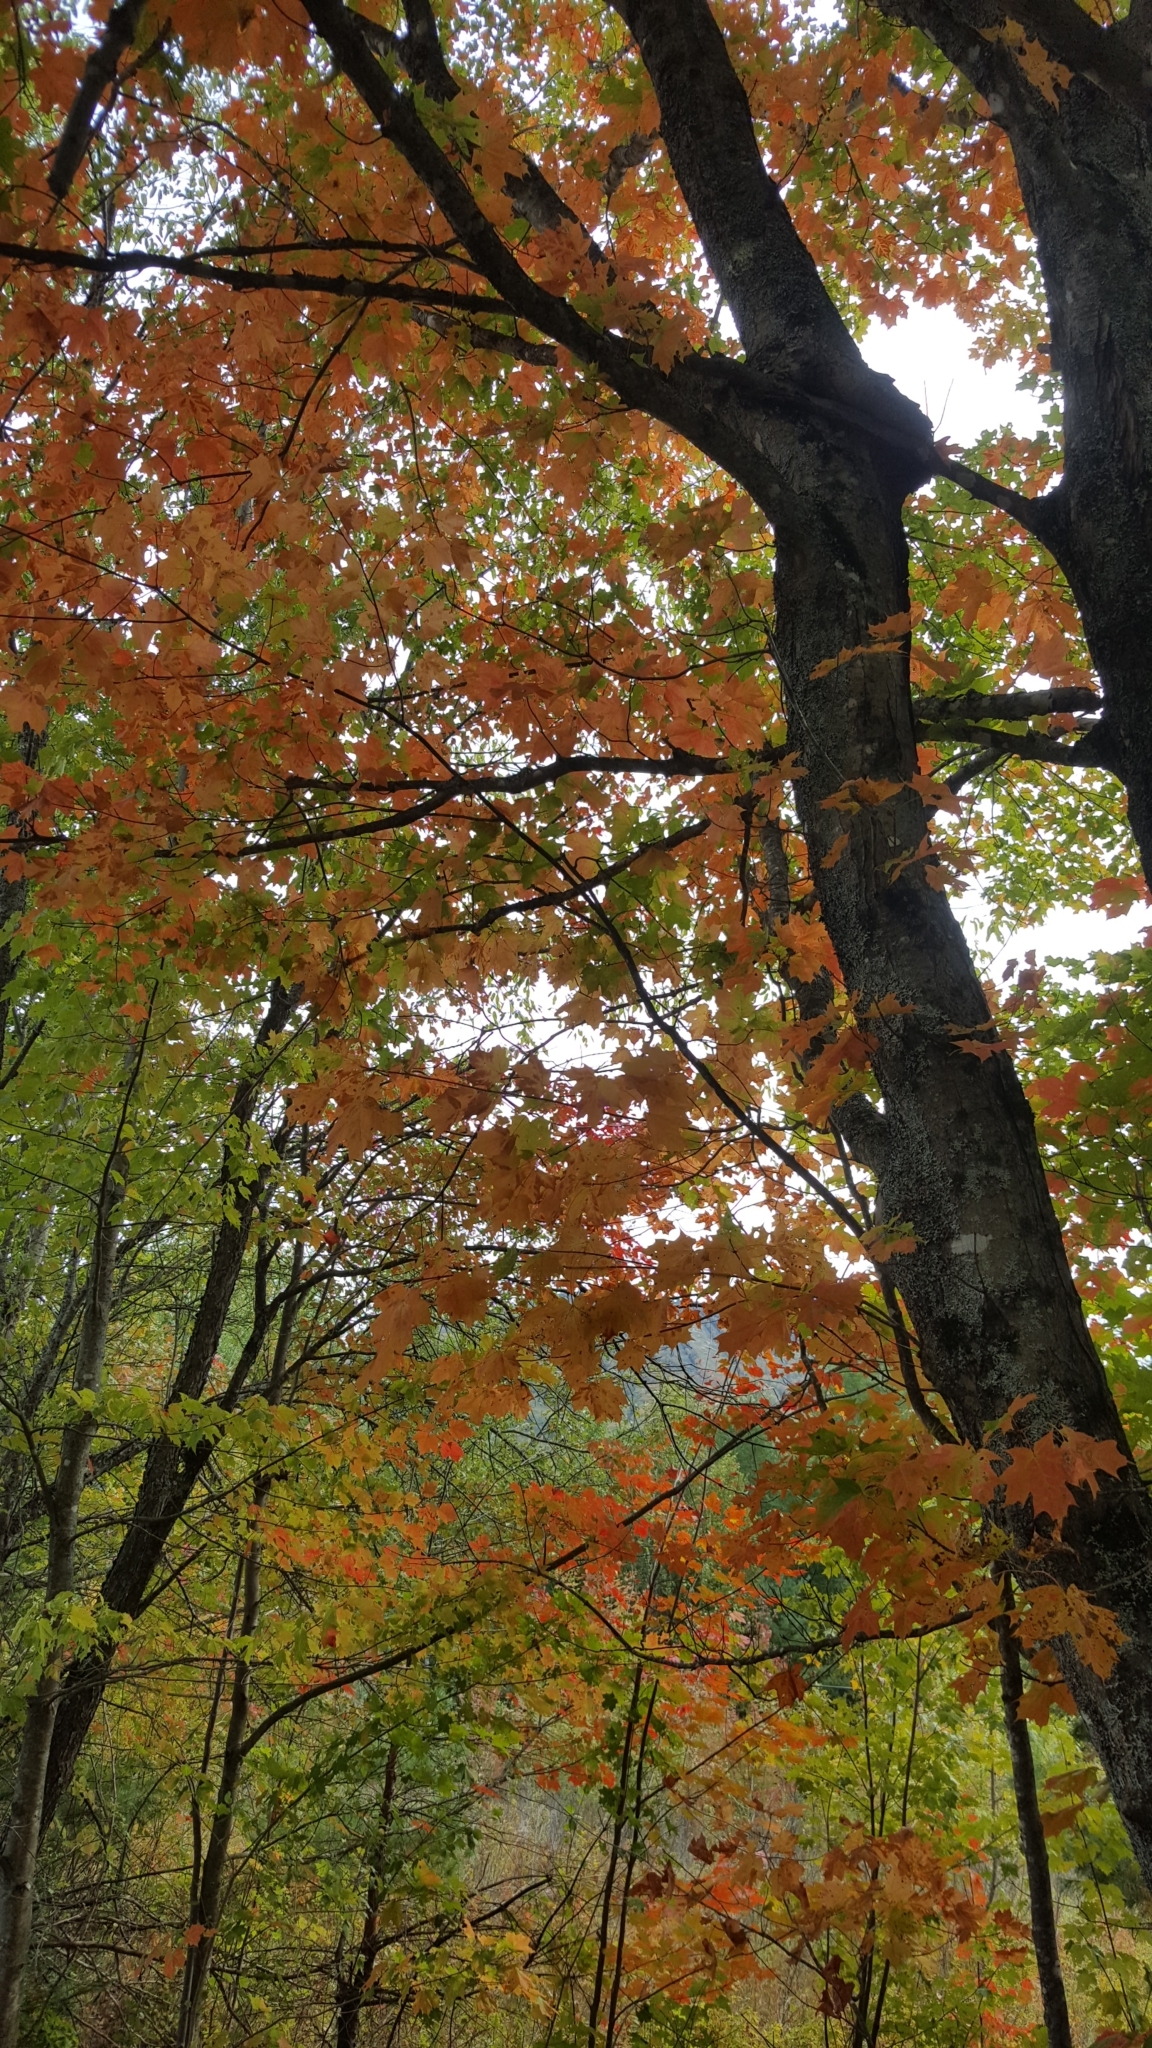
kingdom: Plantae
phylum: Tracheophyta
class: Magnoliopsida
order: Sapindales
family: Sapindaceae
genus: Acer
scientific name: Acer saccharum
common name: Sugar maple
